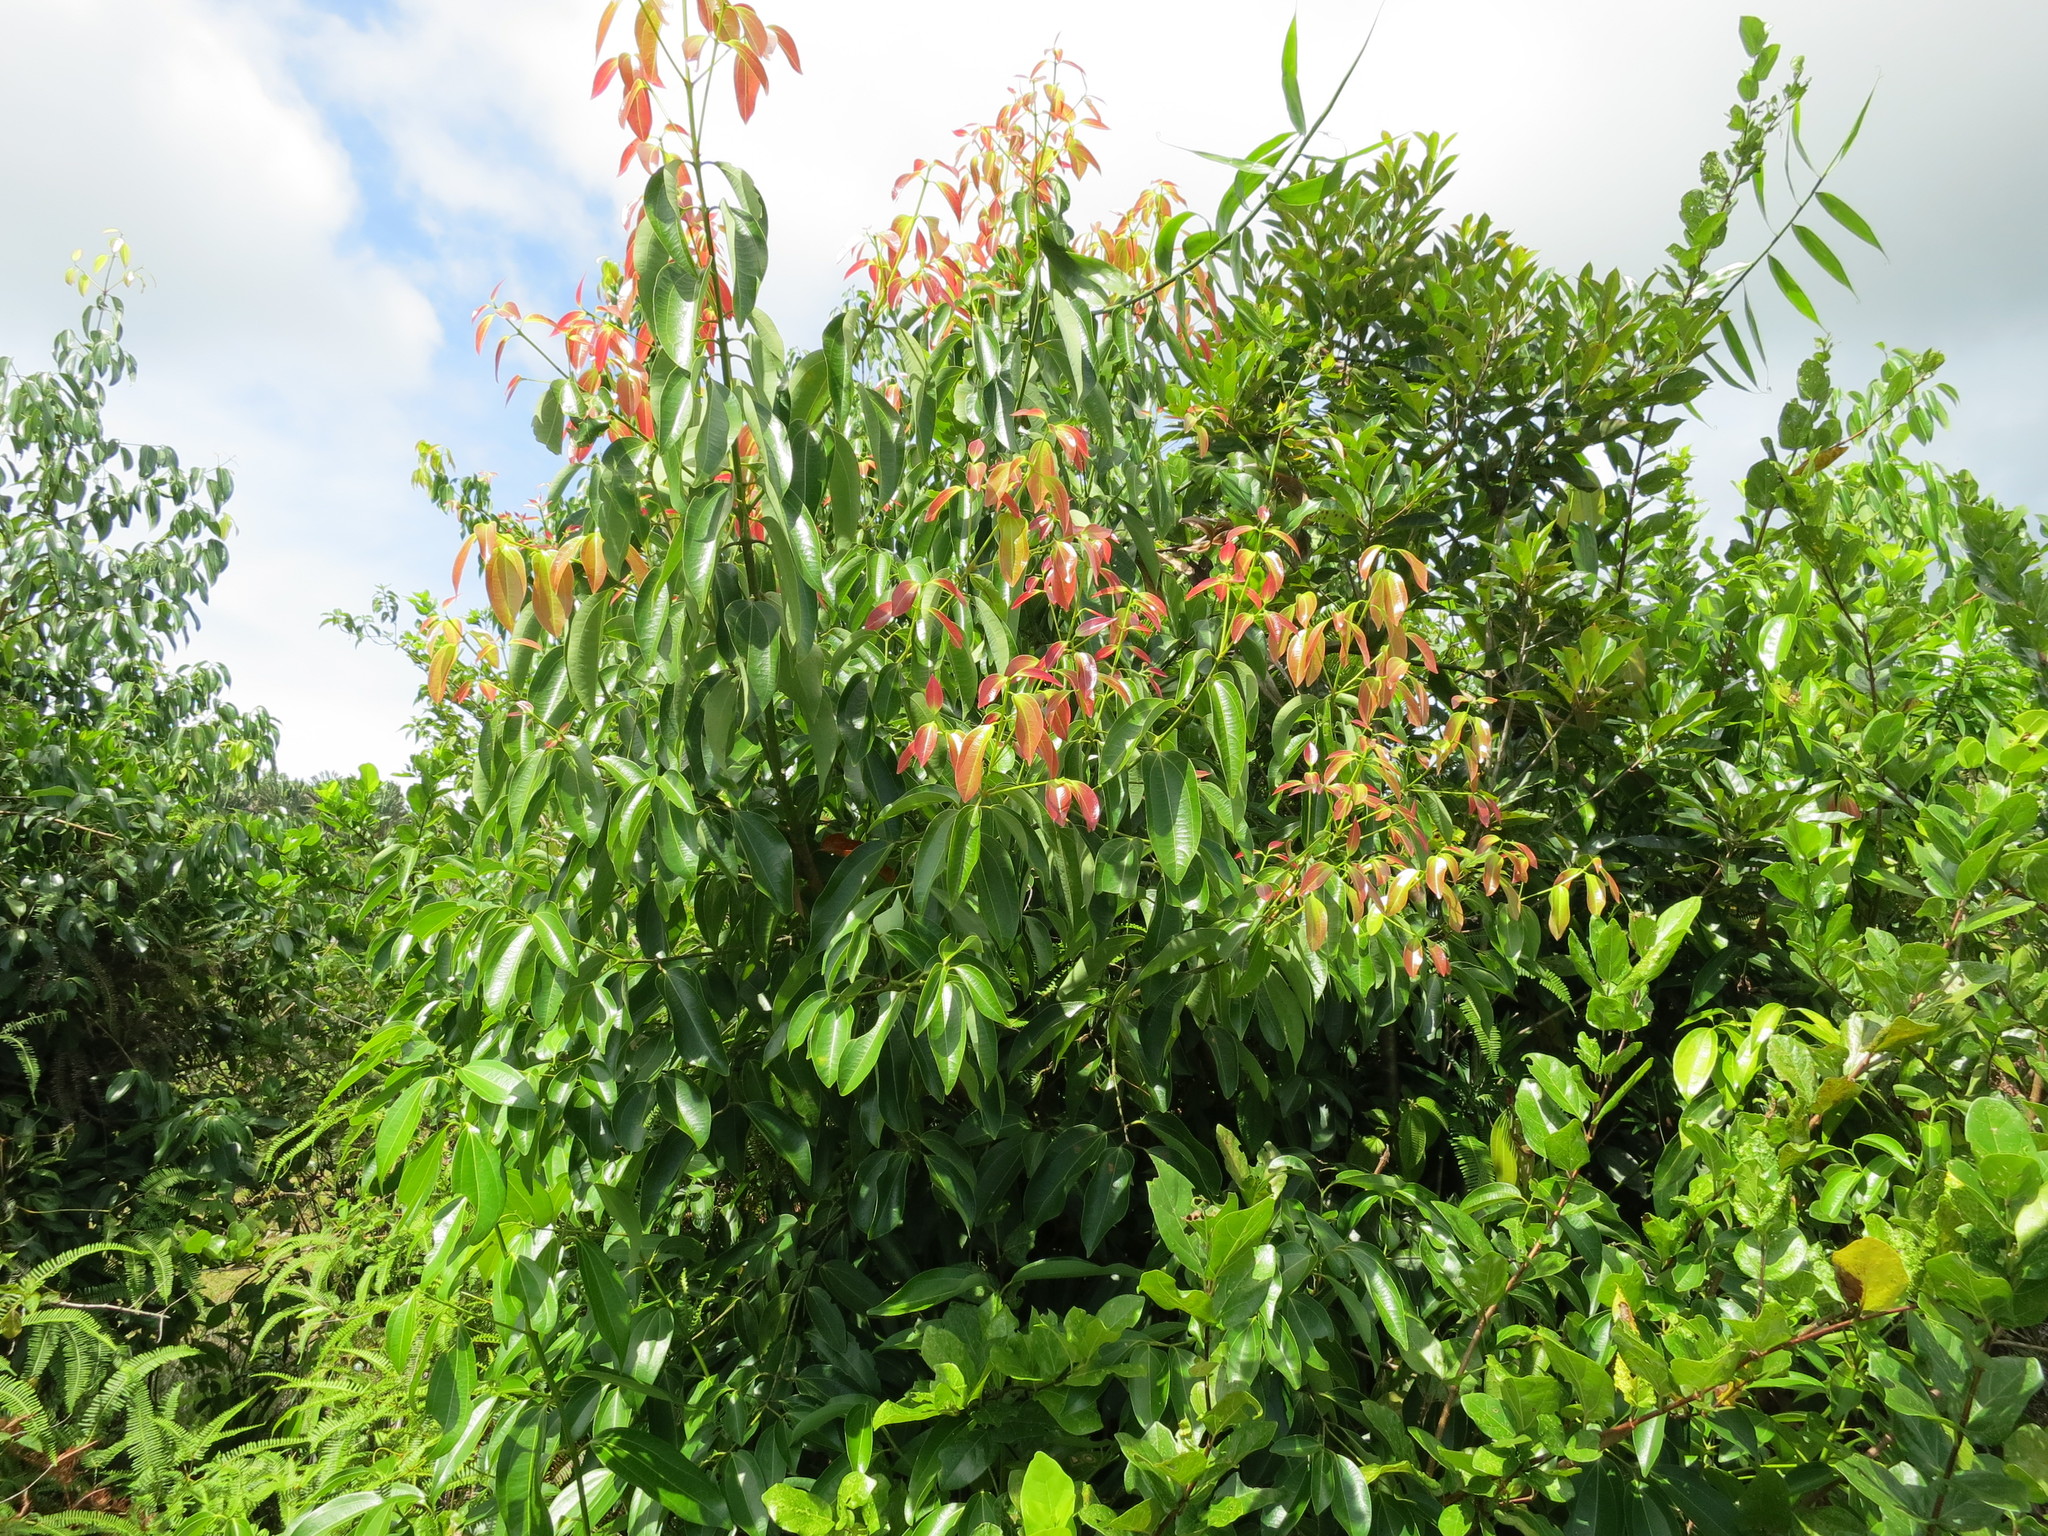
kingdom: Plantae
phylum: Tracheophyta
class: Magnoliopsida
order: Laurales
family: Lauraceae
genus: Cinnamomum
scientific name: Cinnamomum verum
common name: Cinnamon
